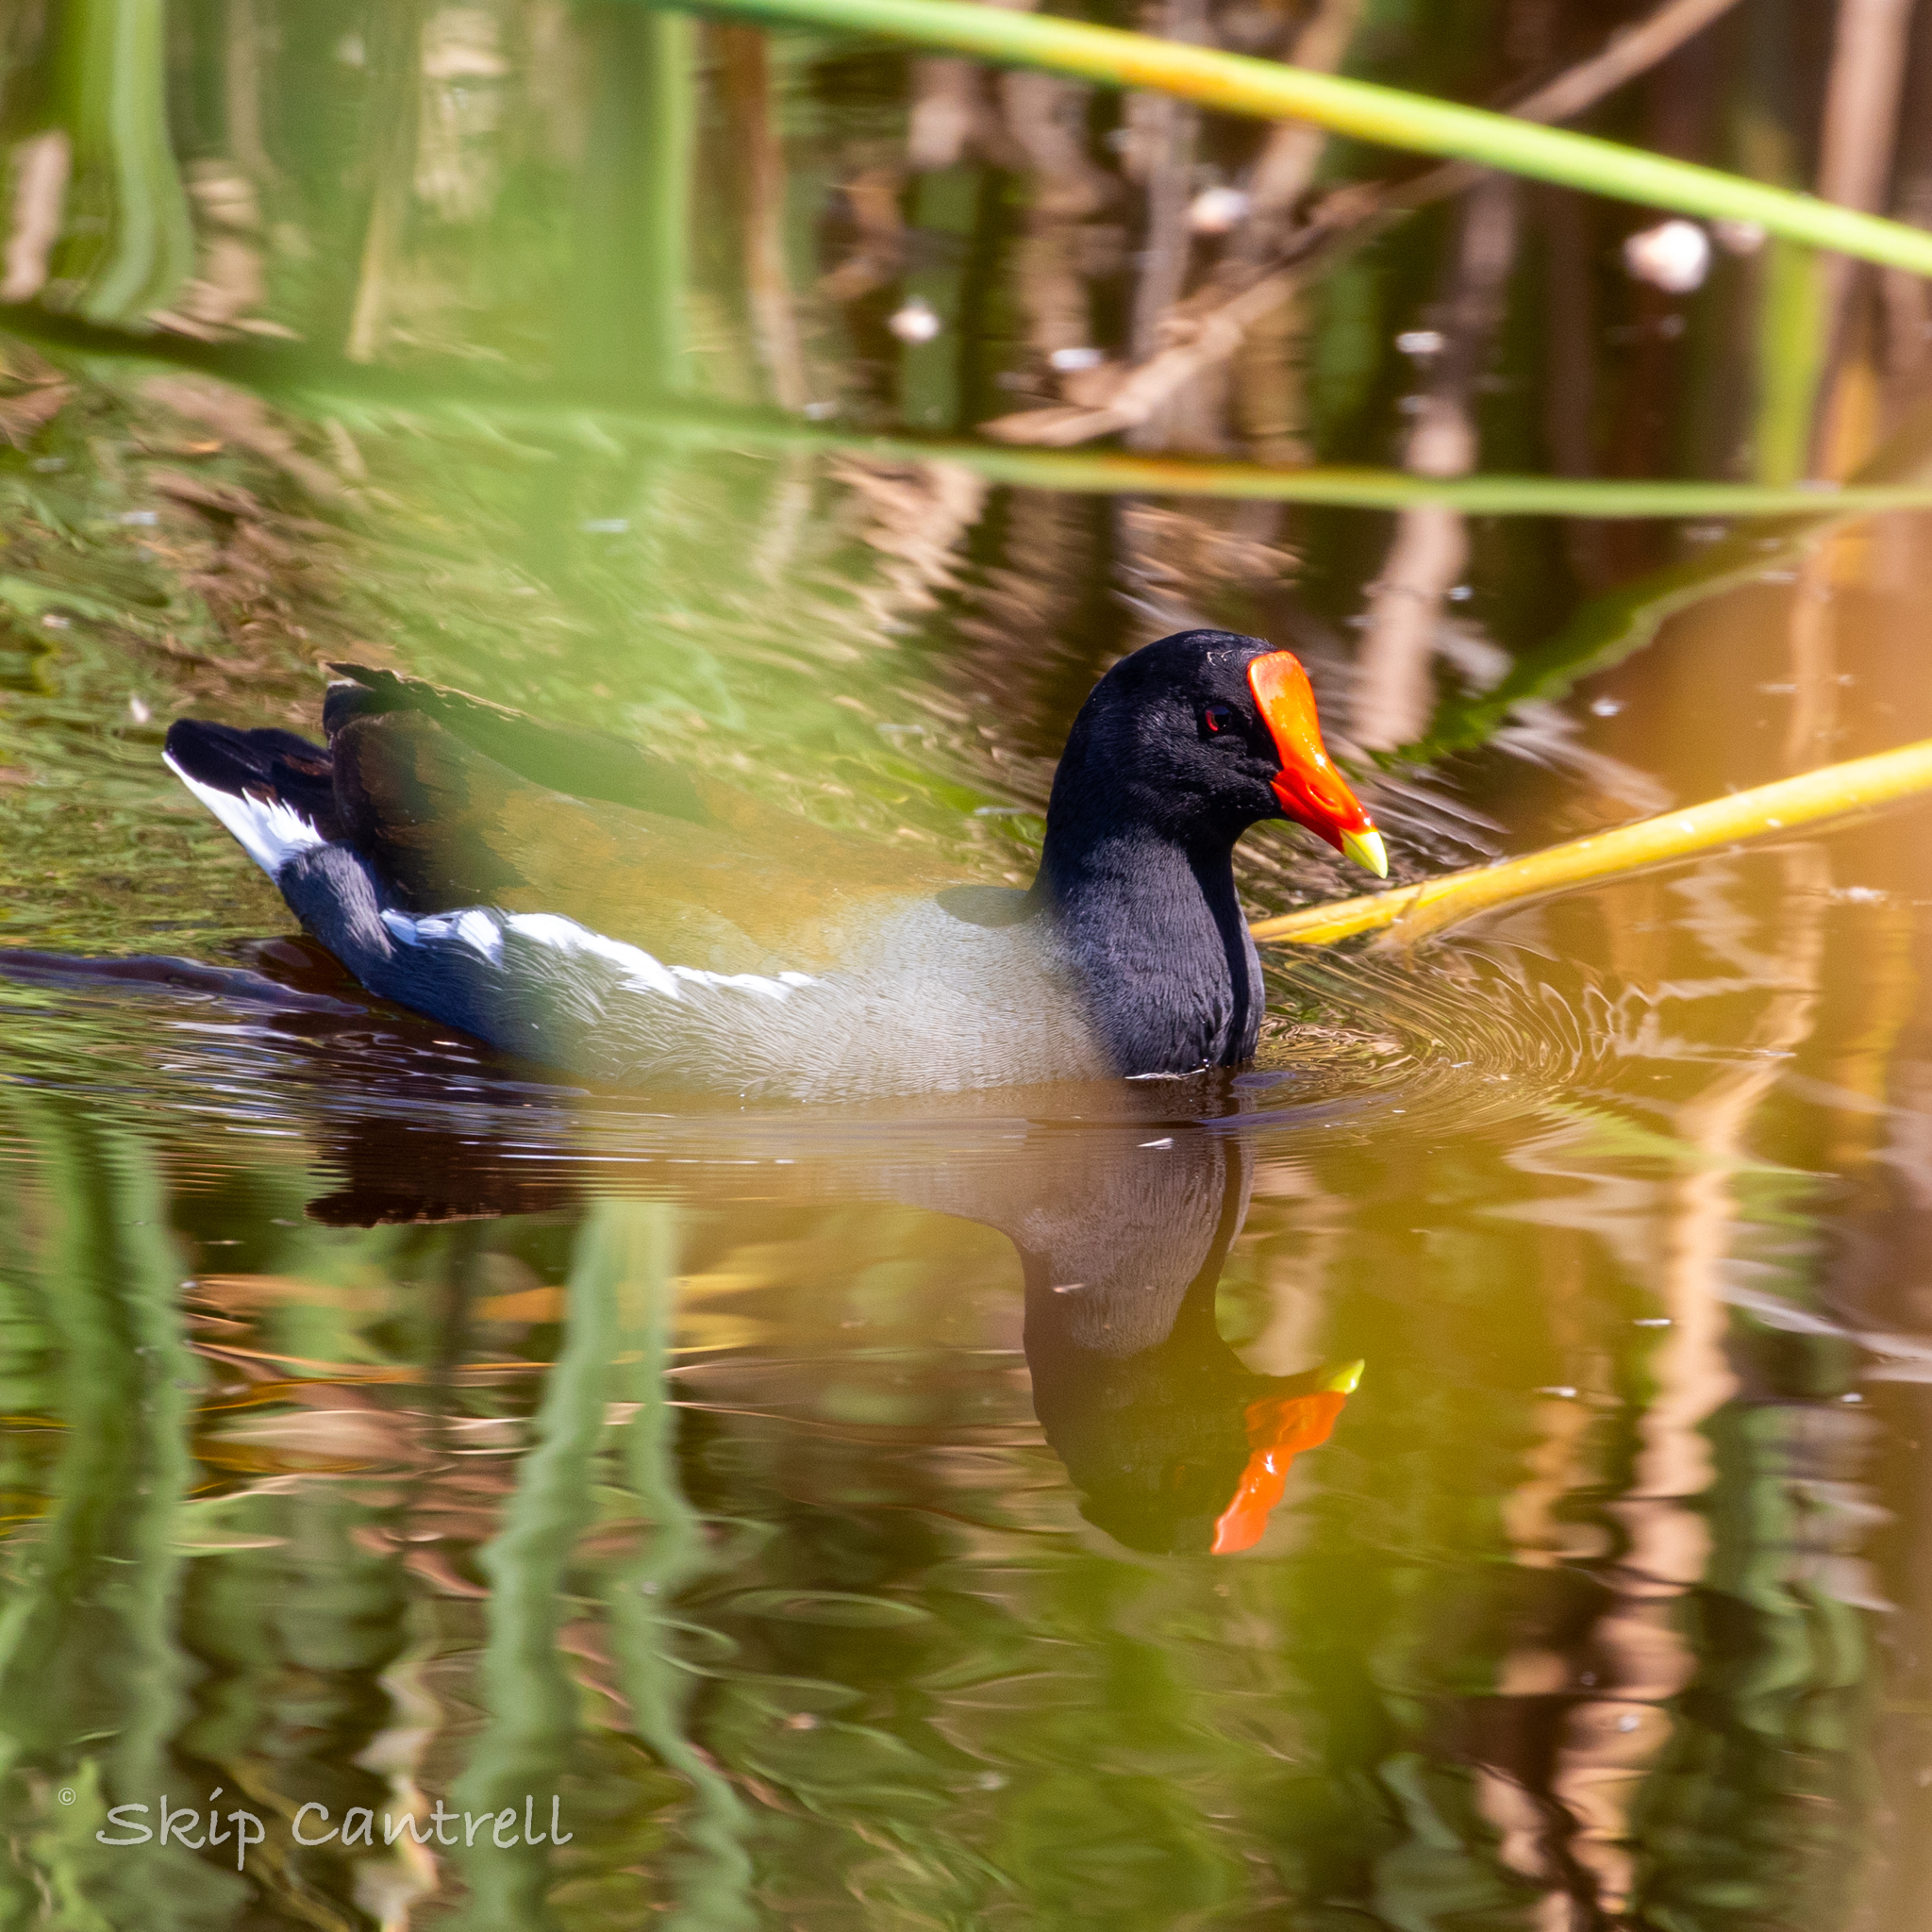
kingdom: Animalia
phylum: Chordata
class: Aves
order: Gruiformes
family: Rallidae
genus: Gallinula
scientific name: Gallinula chloropus
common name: Common moorhen
